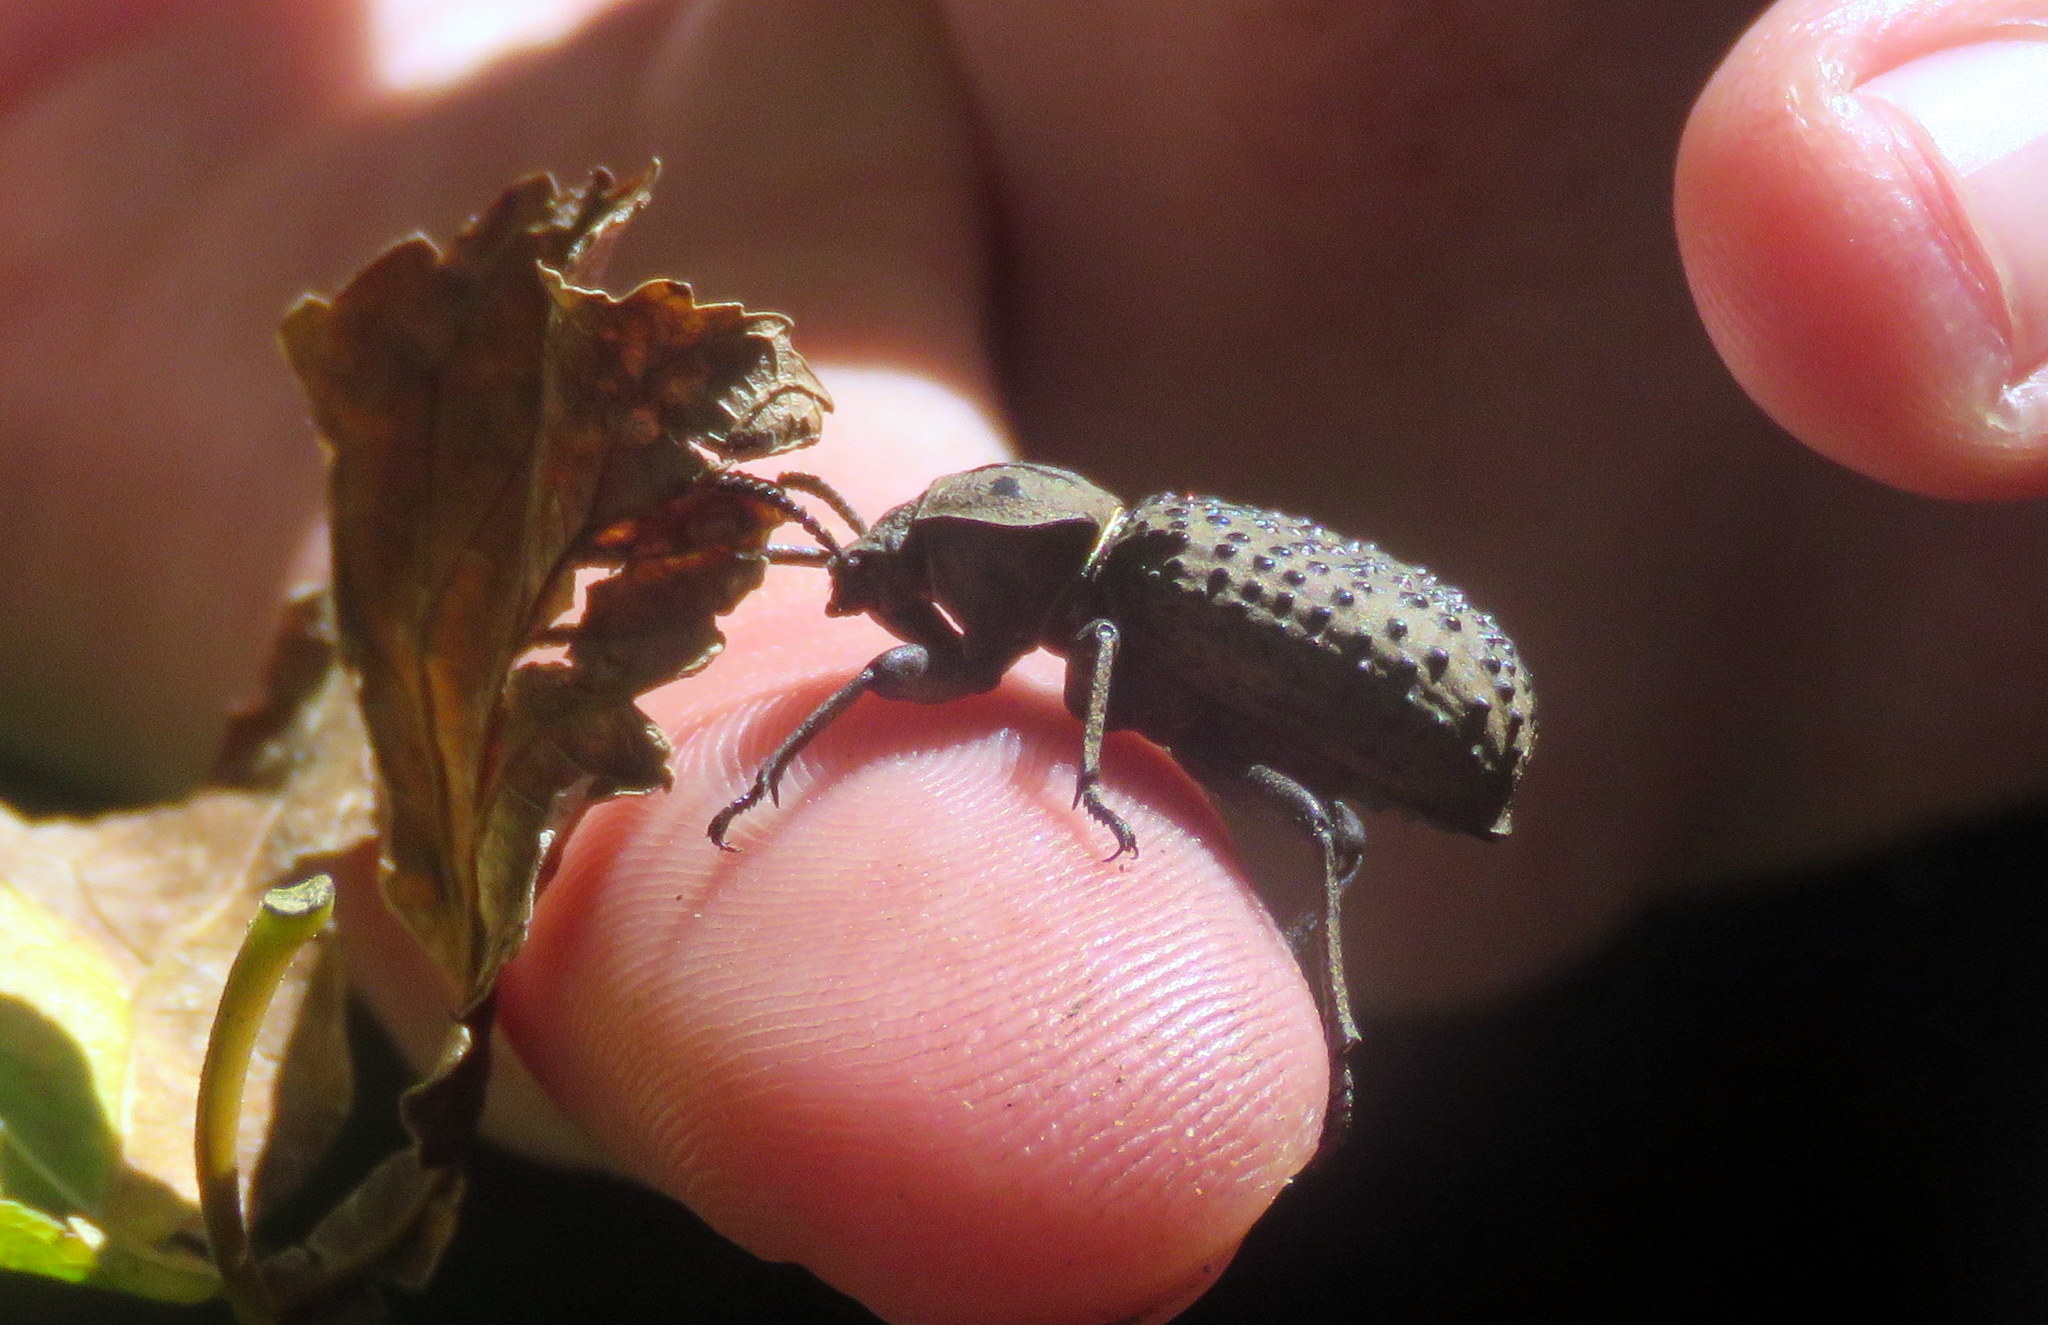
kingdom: Animalia
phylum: Arthropoda
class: Insecta
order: Coleoptera
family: Tenebrionidae
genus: Scotobius
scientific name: Scotobius pilularius
